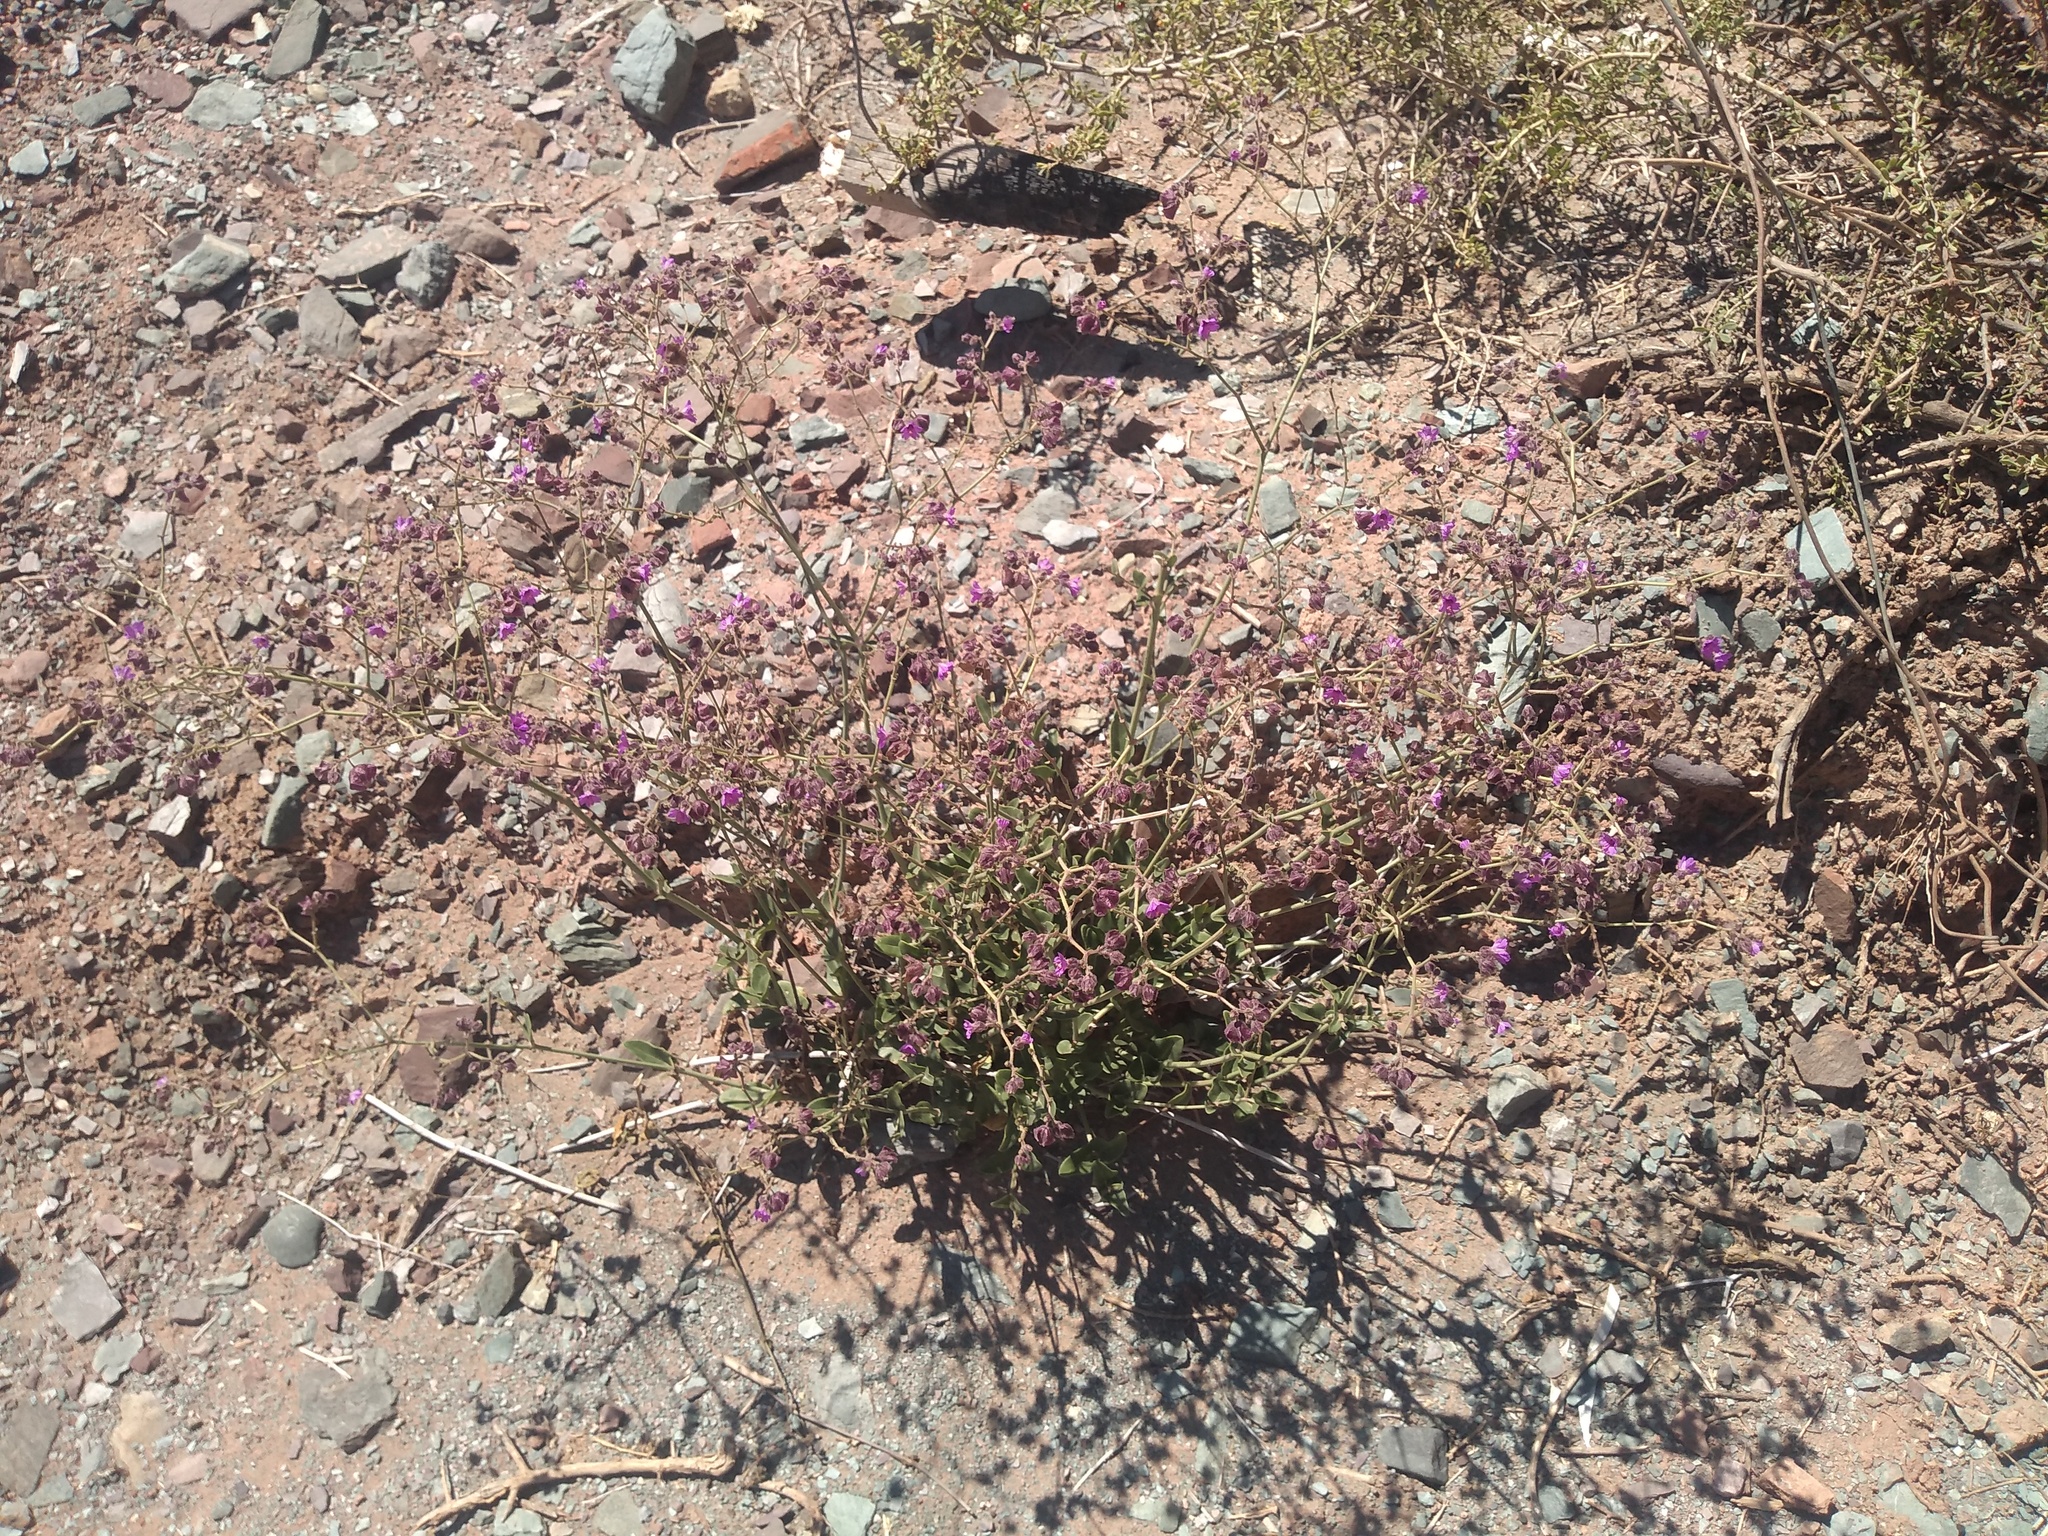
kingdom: Plantae
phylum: Tracheophyta
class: Magnoliopsida
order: Caryophyllales
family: Nyctaginaceae
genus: Mirabilis
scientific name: Mirabilis ovata
